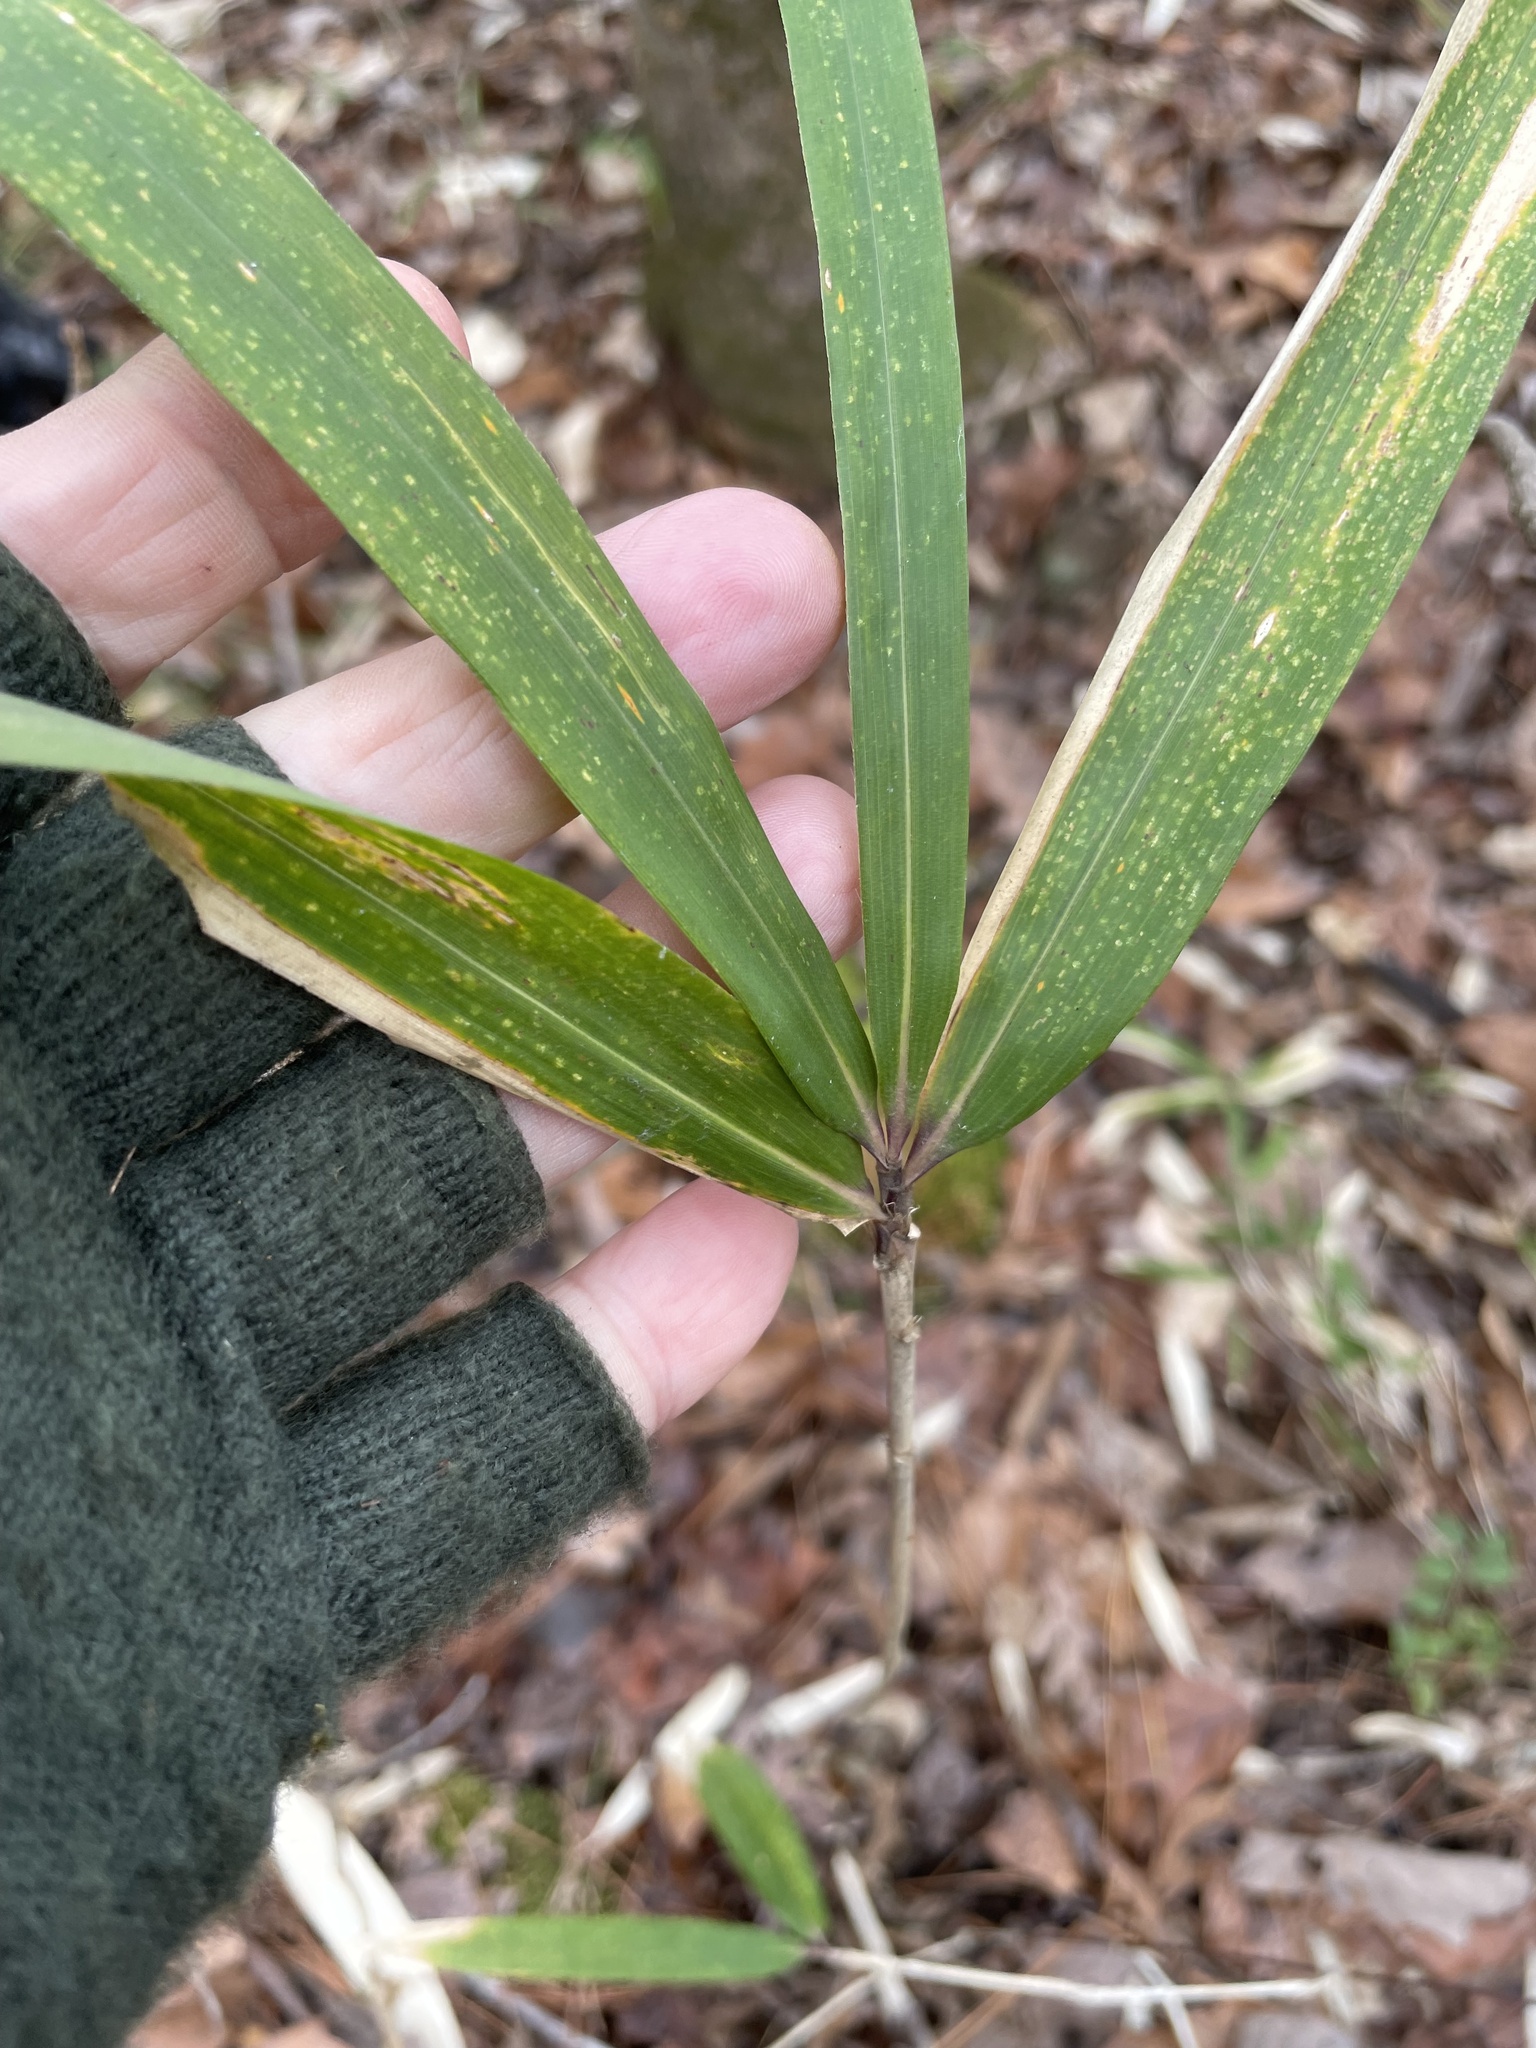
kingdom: Plantae
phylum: Tracheophyta
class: Liliopsida
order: Poales
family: Poaceae
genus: Arundinaria
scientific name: Arundinaria tecta
